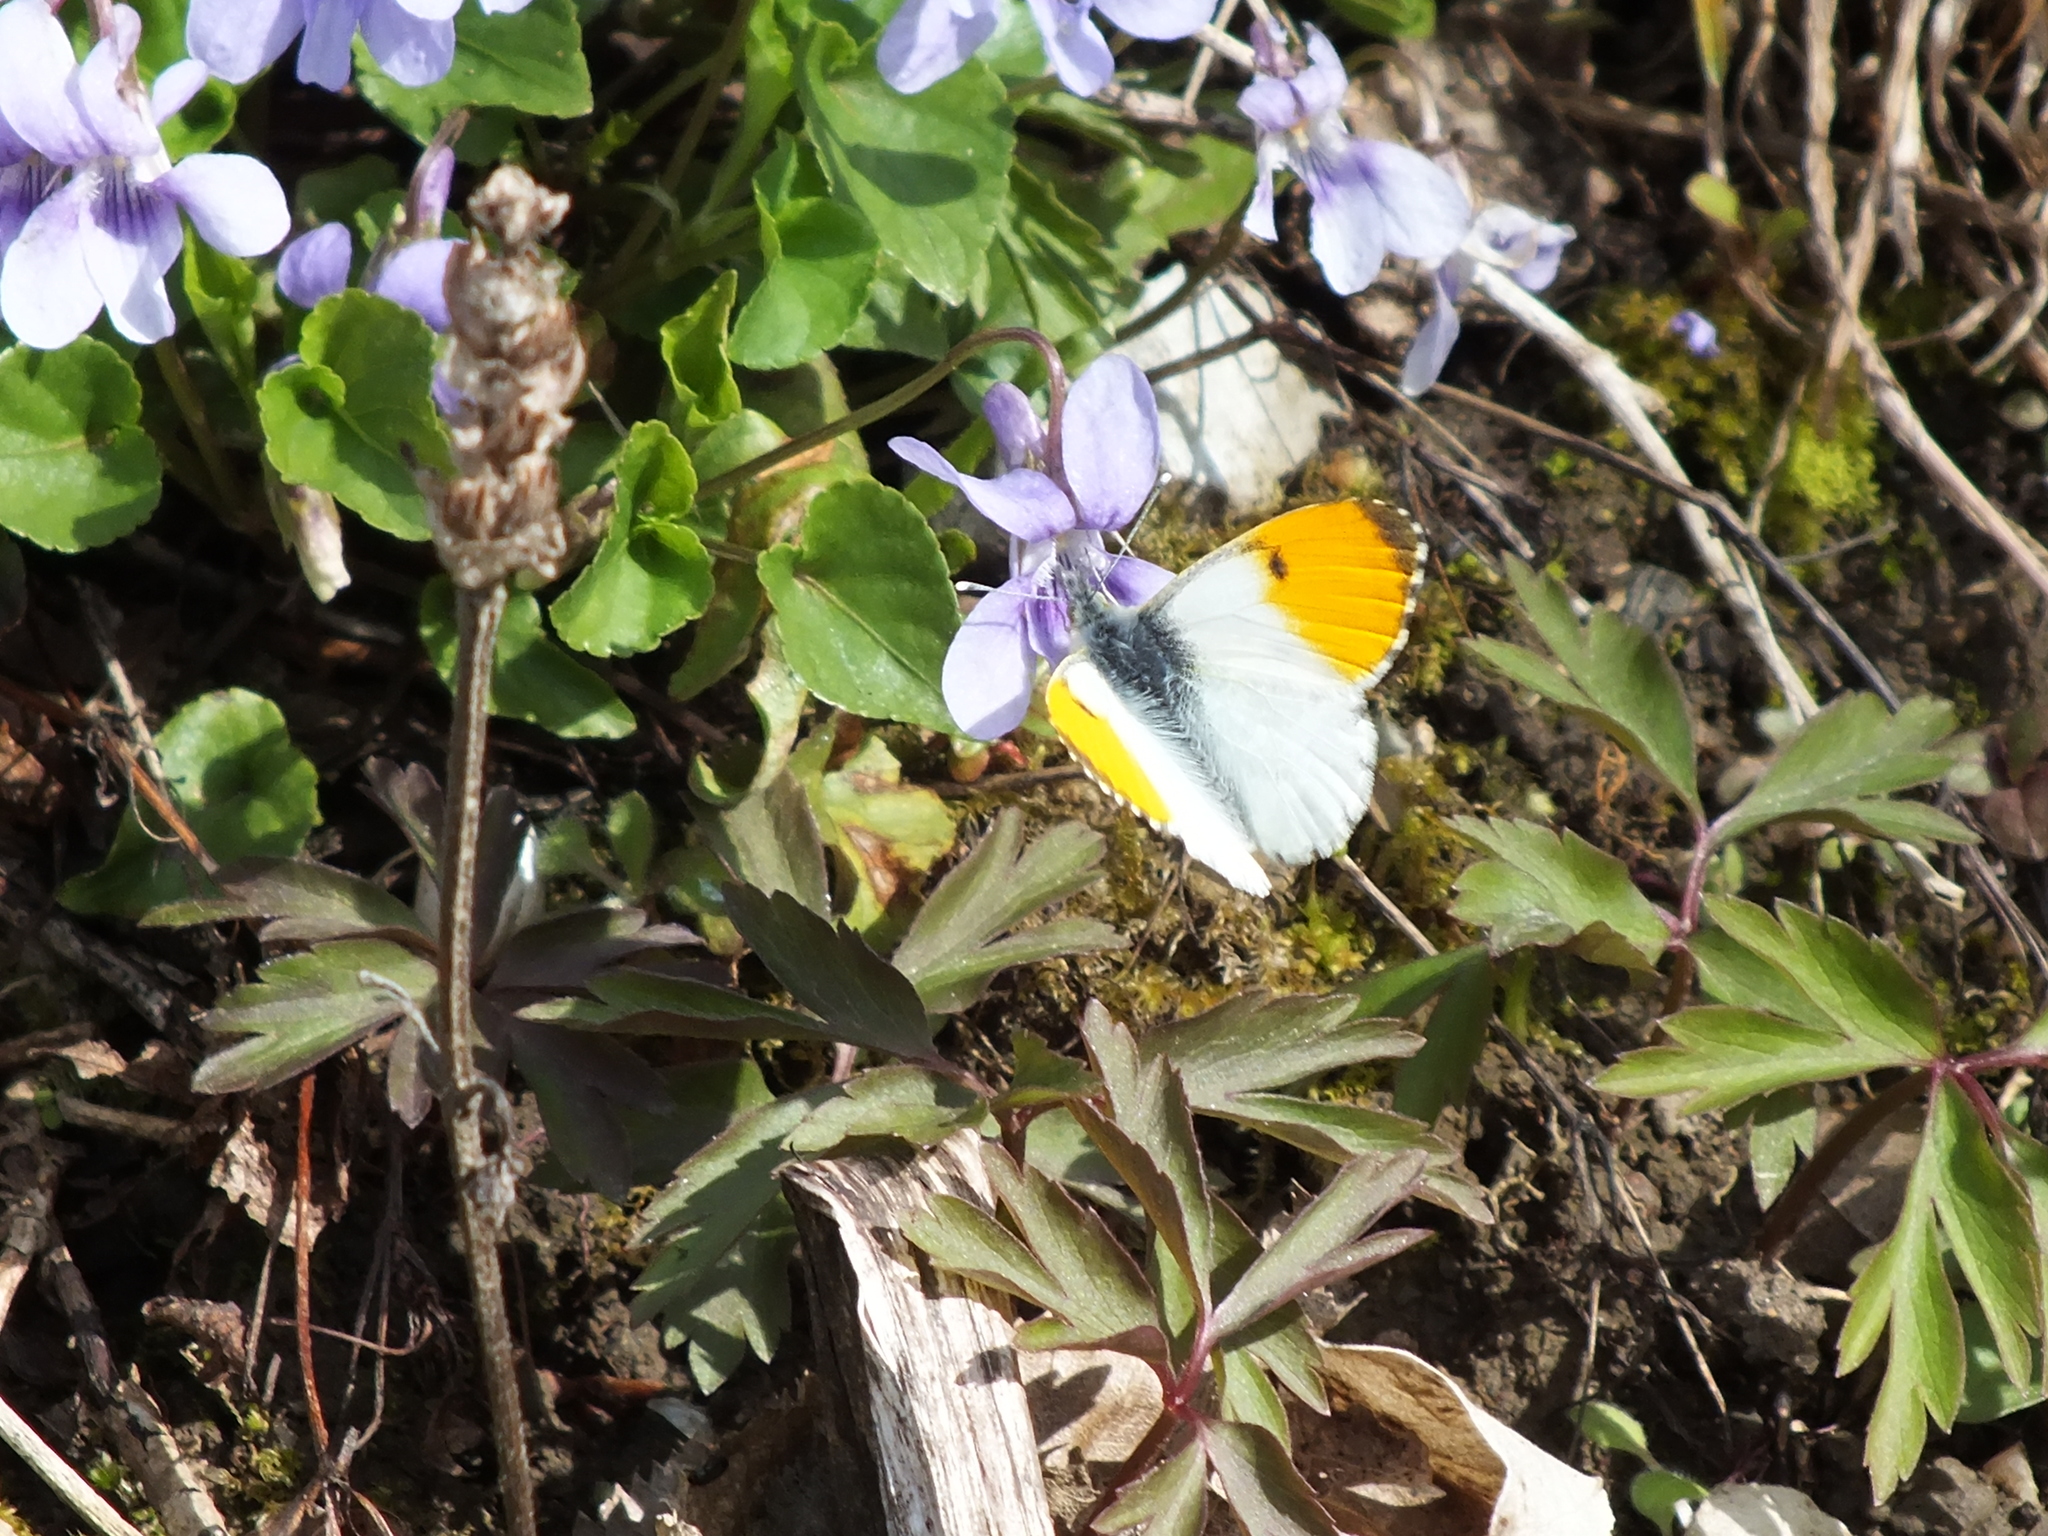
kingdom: Animalia
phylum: Arthropoda
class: Insecta
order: Lepidoptera
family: Pieridae
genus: Anthocharis
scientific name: Anthocharis cardamines
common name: Orange-tip
